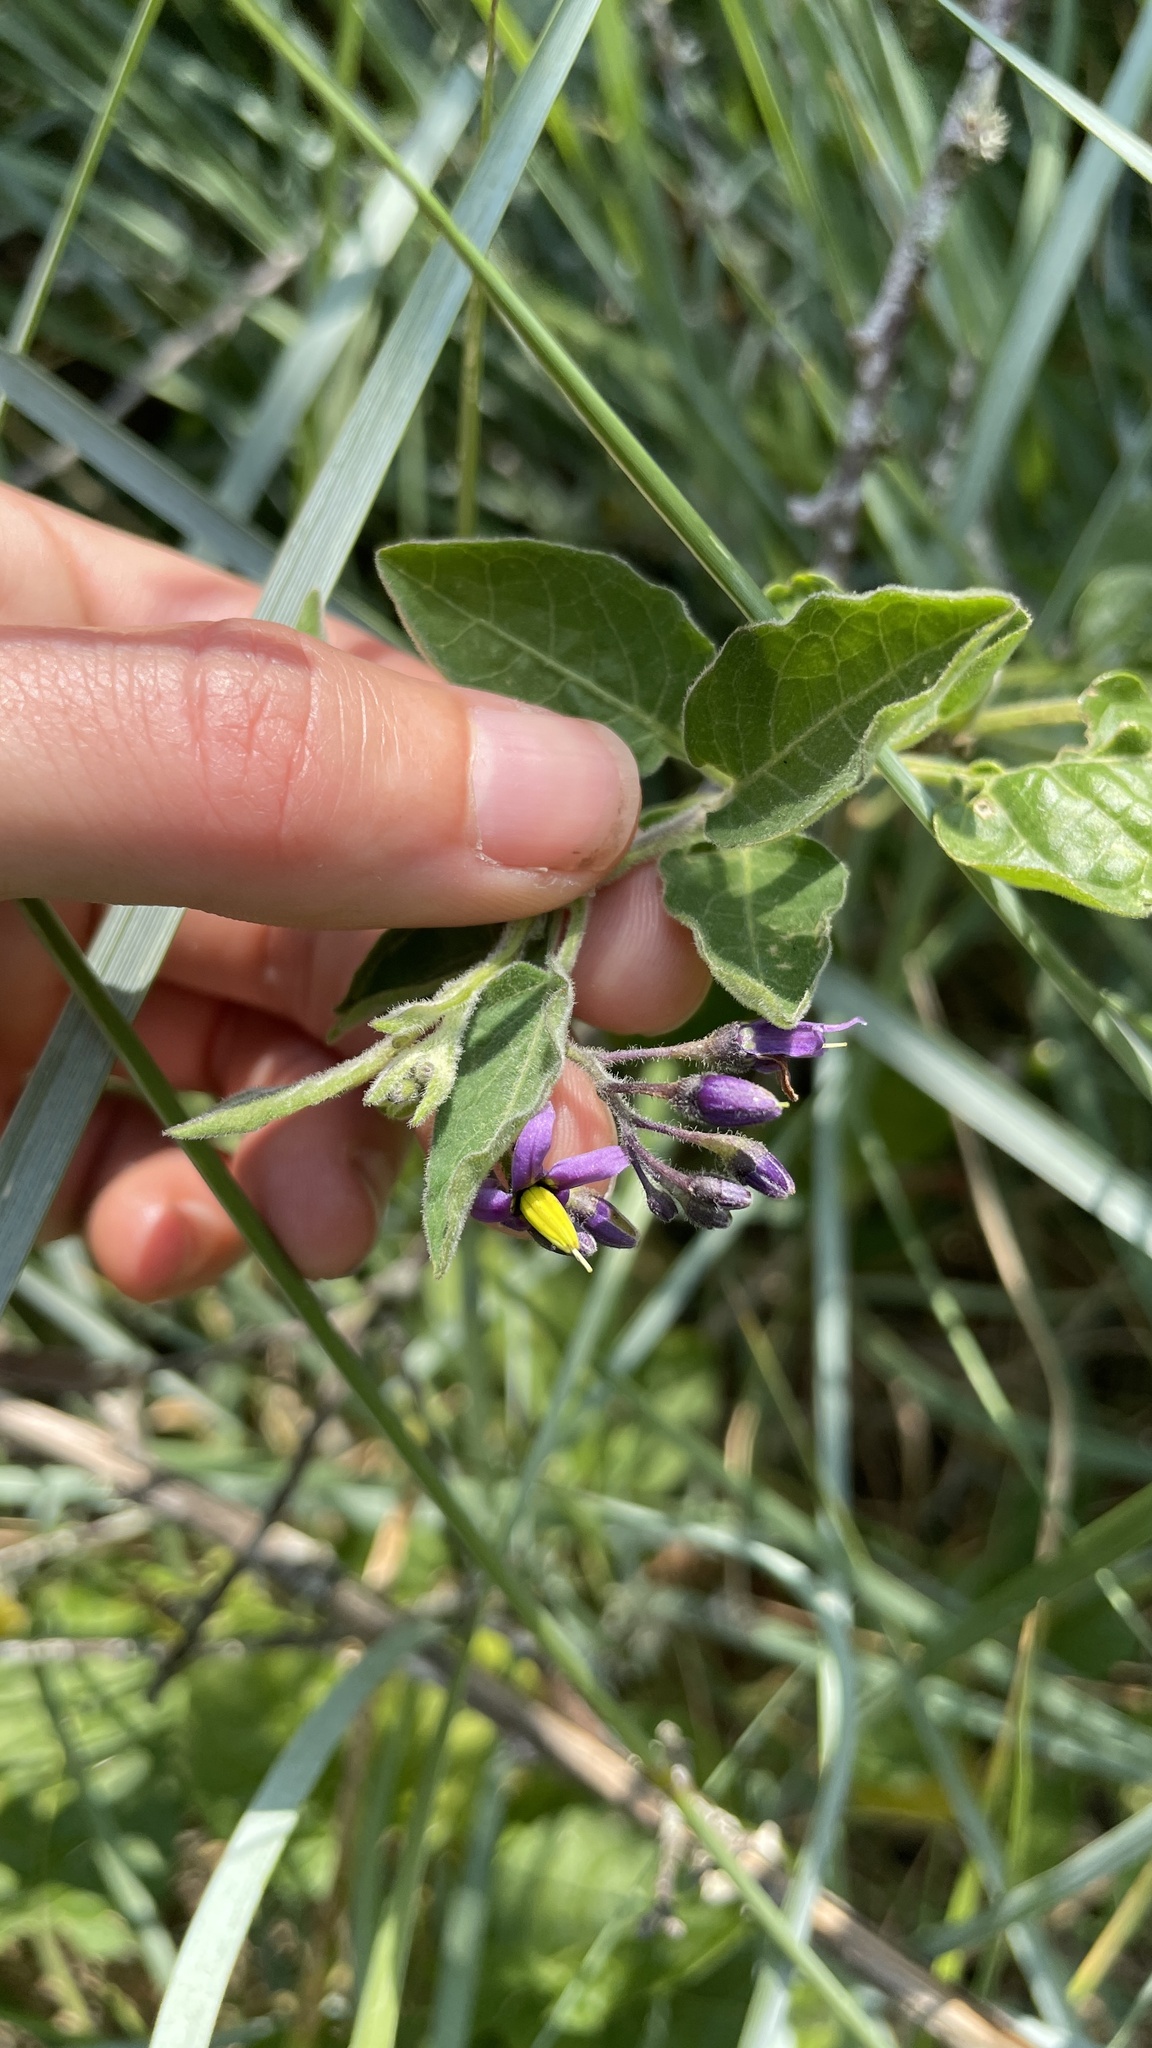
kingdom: Plantae
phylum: Tracheophyta
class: Magnoliopsida
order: Solanales
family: Solanaceae
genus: Solanum
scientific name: Solanum dulcamara
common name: Climbing nightshade
